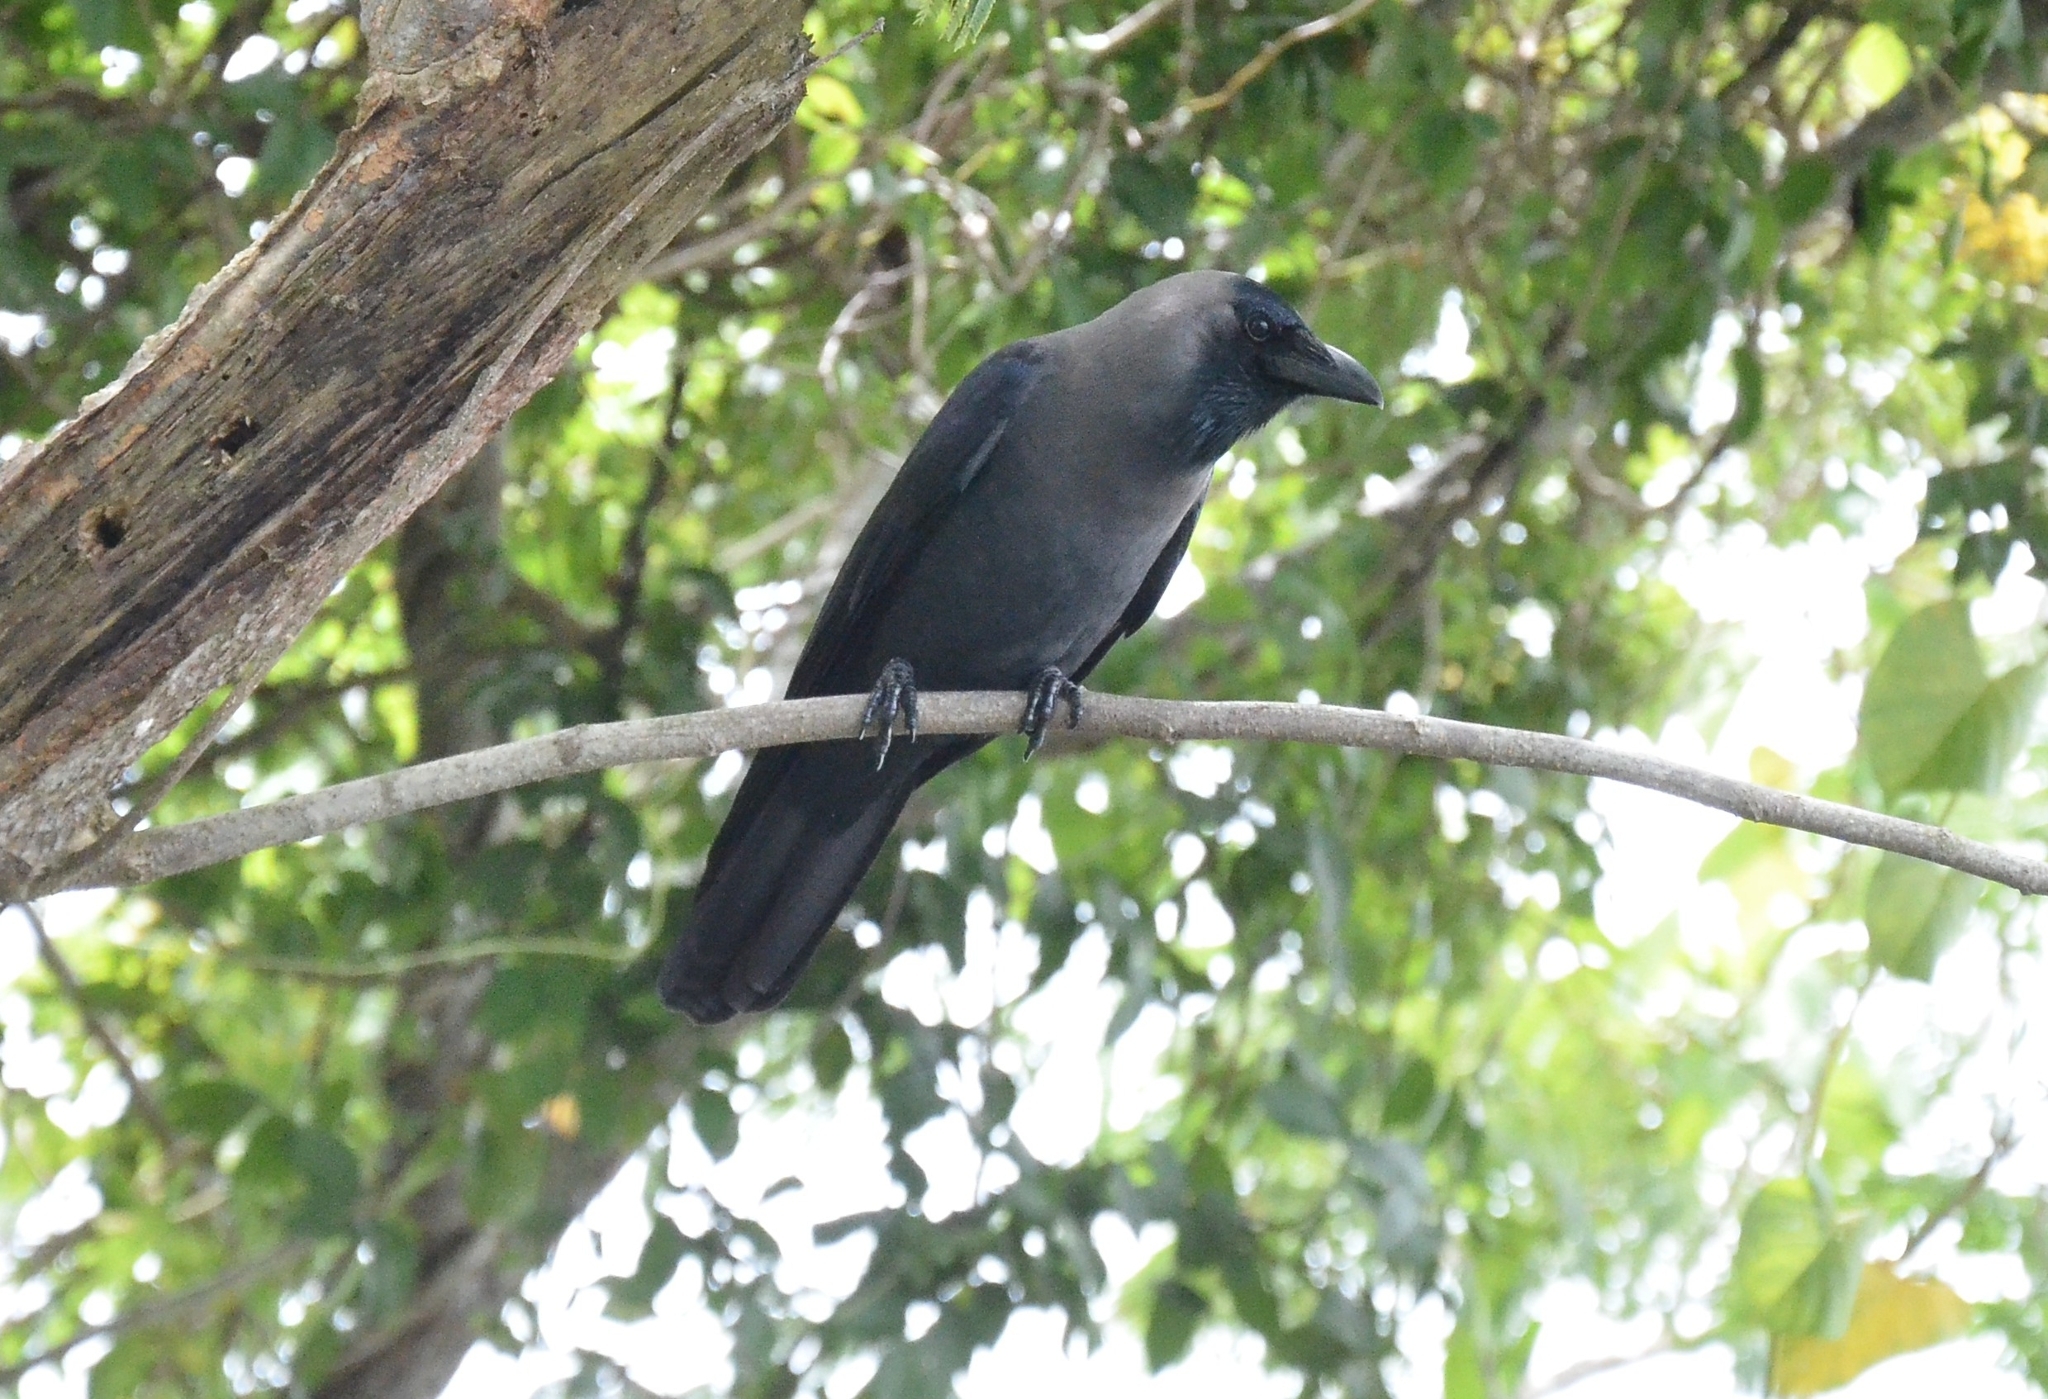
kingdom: Animalia
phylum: Chordata
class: Aves
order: Passeriformes
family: Corvidae
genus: Corvus
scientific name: Corvus splendens
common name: House crow
